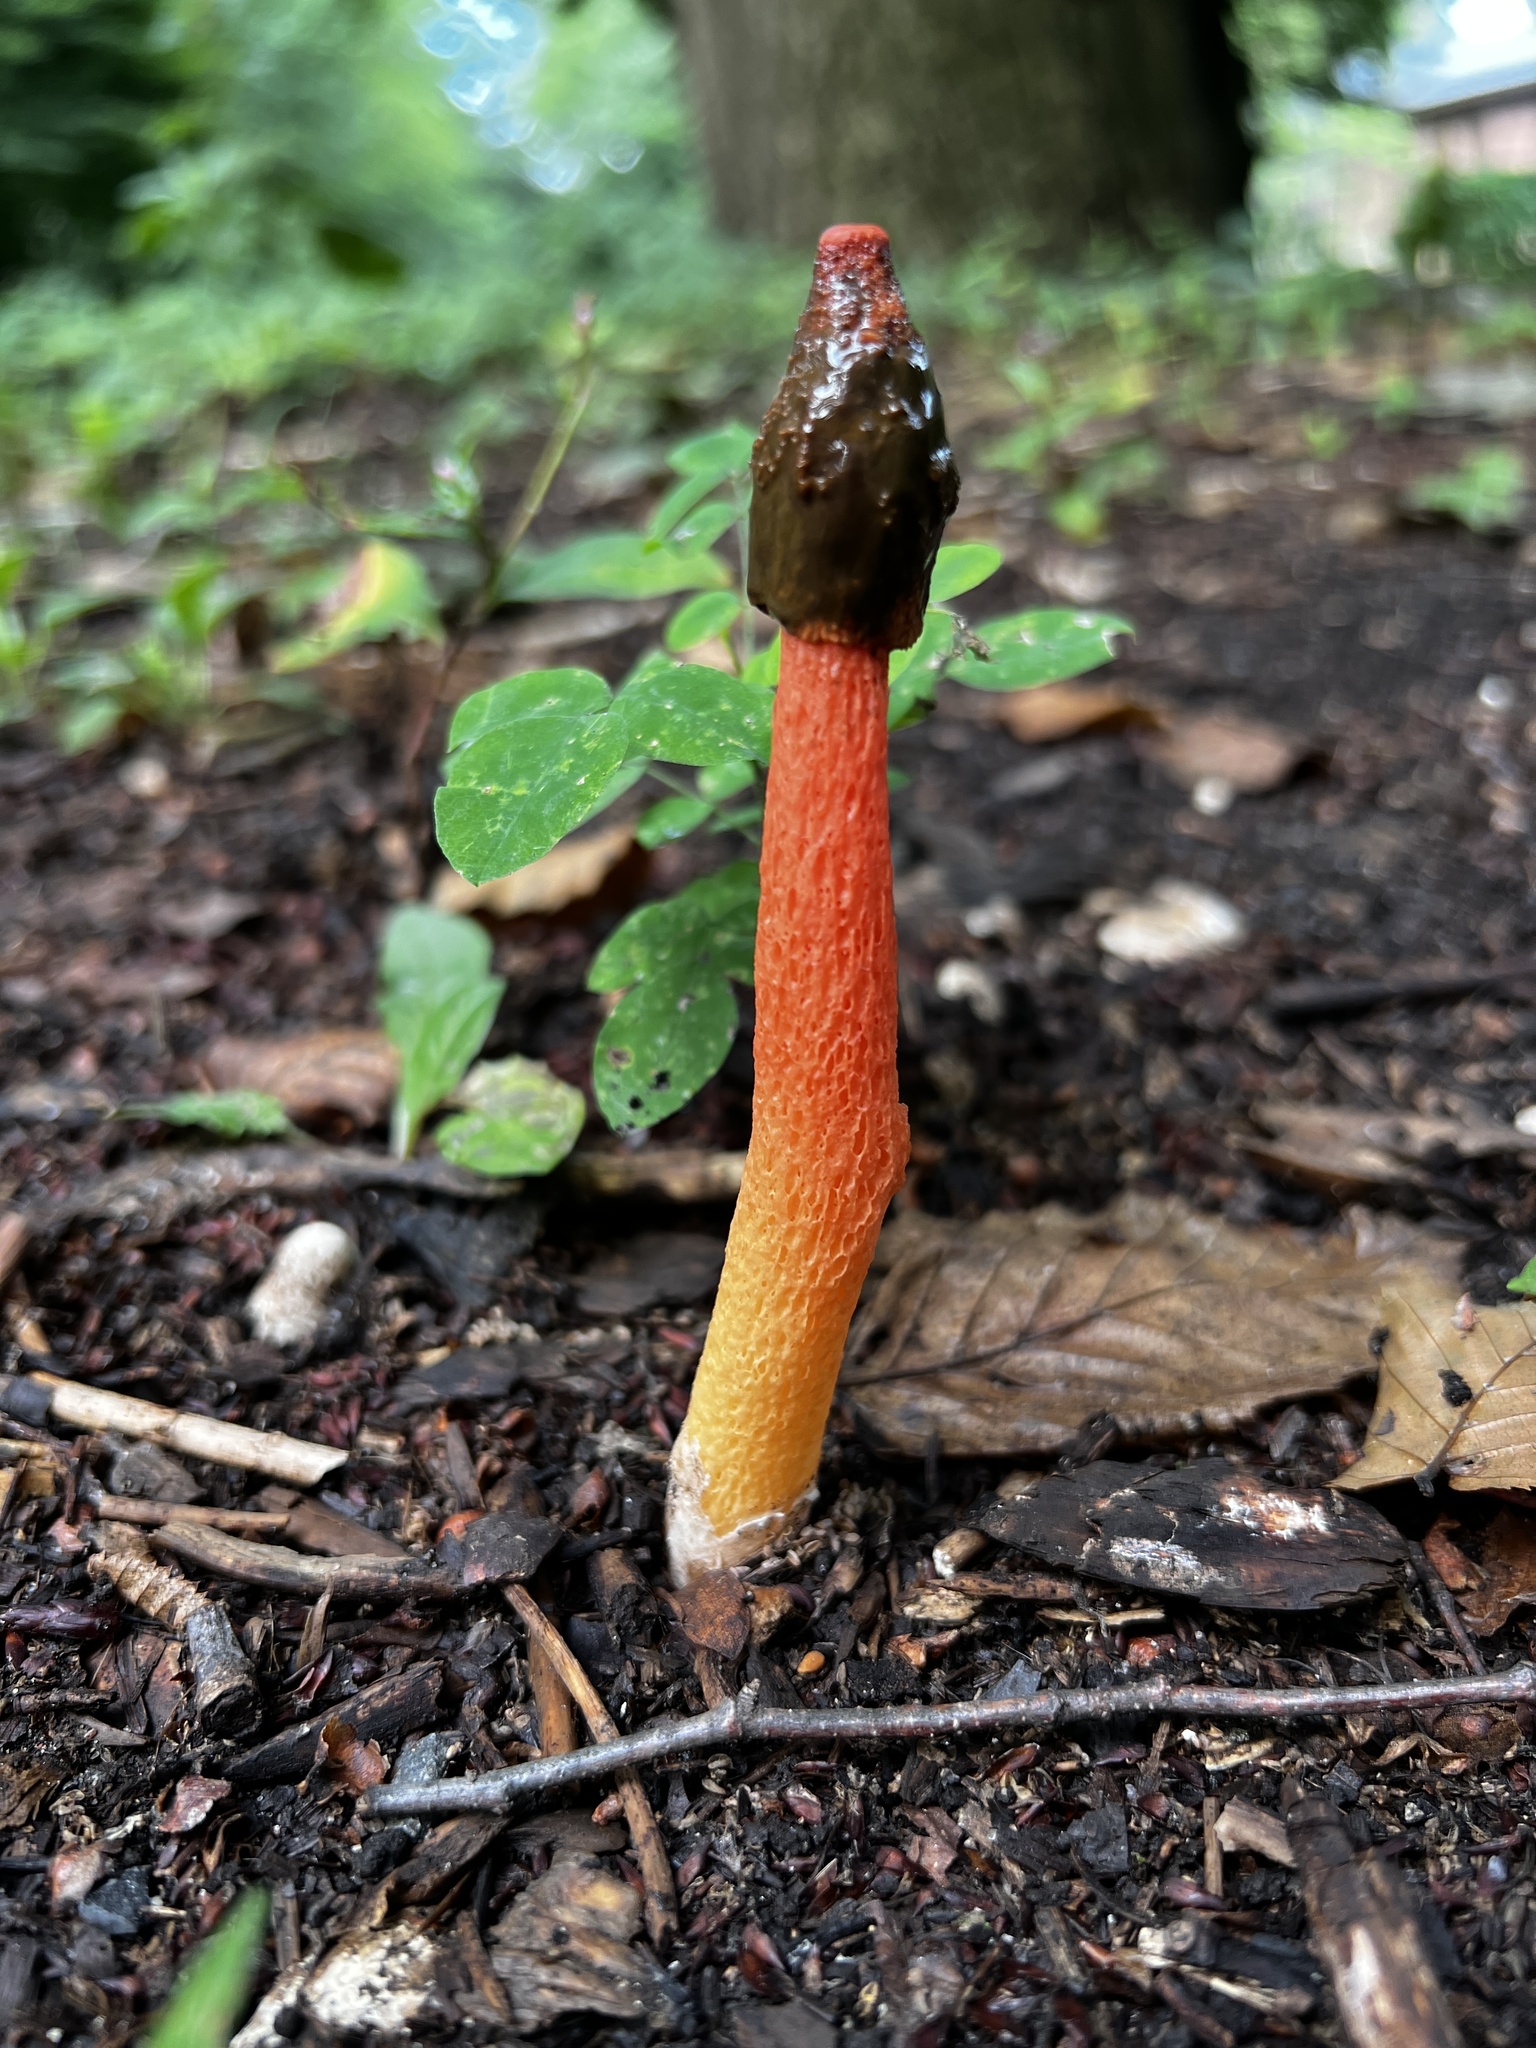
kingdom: Fungi
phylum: Basidiomycota
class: Agaricomycetes
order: Phallales
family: Phallaceae
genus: Phallus
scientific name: Phallus rugulosus
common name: Wrinkly stinkhorn
